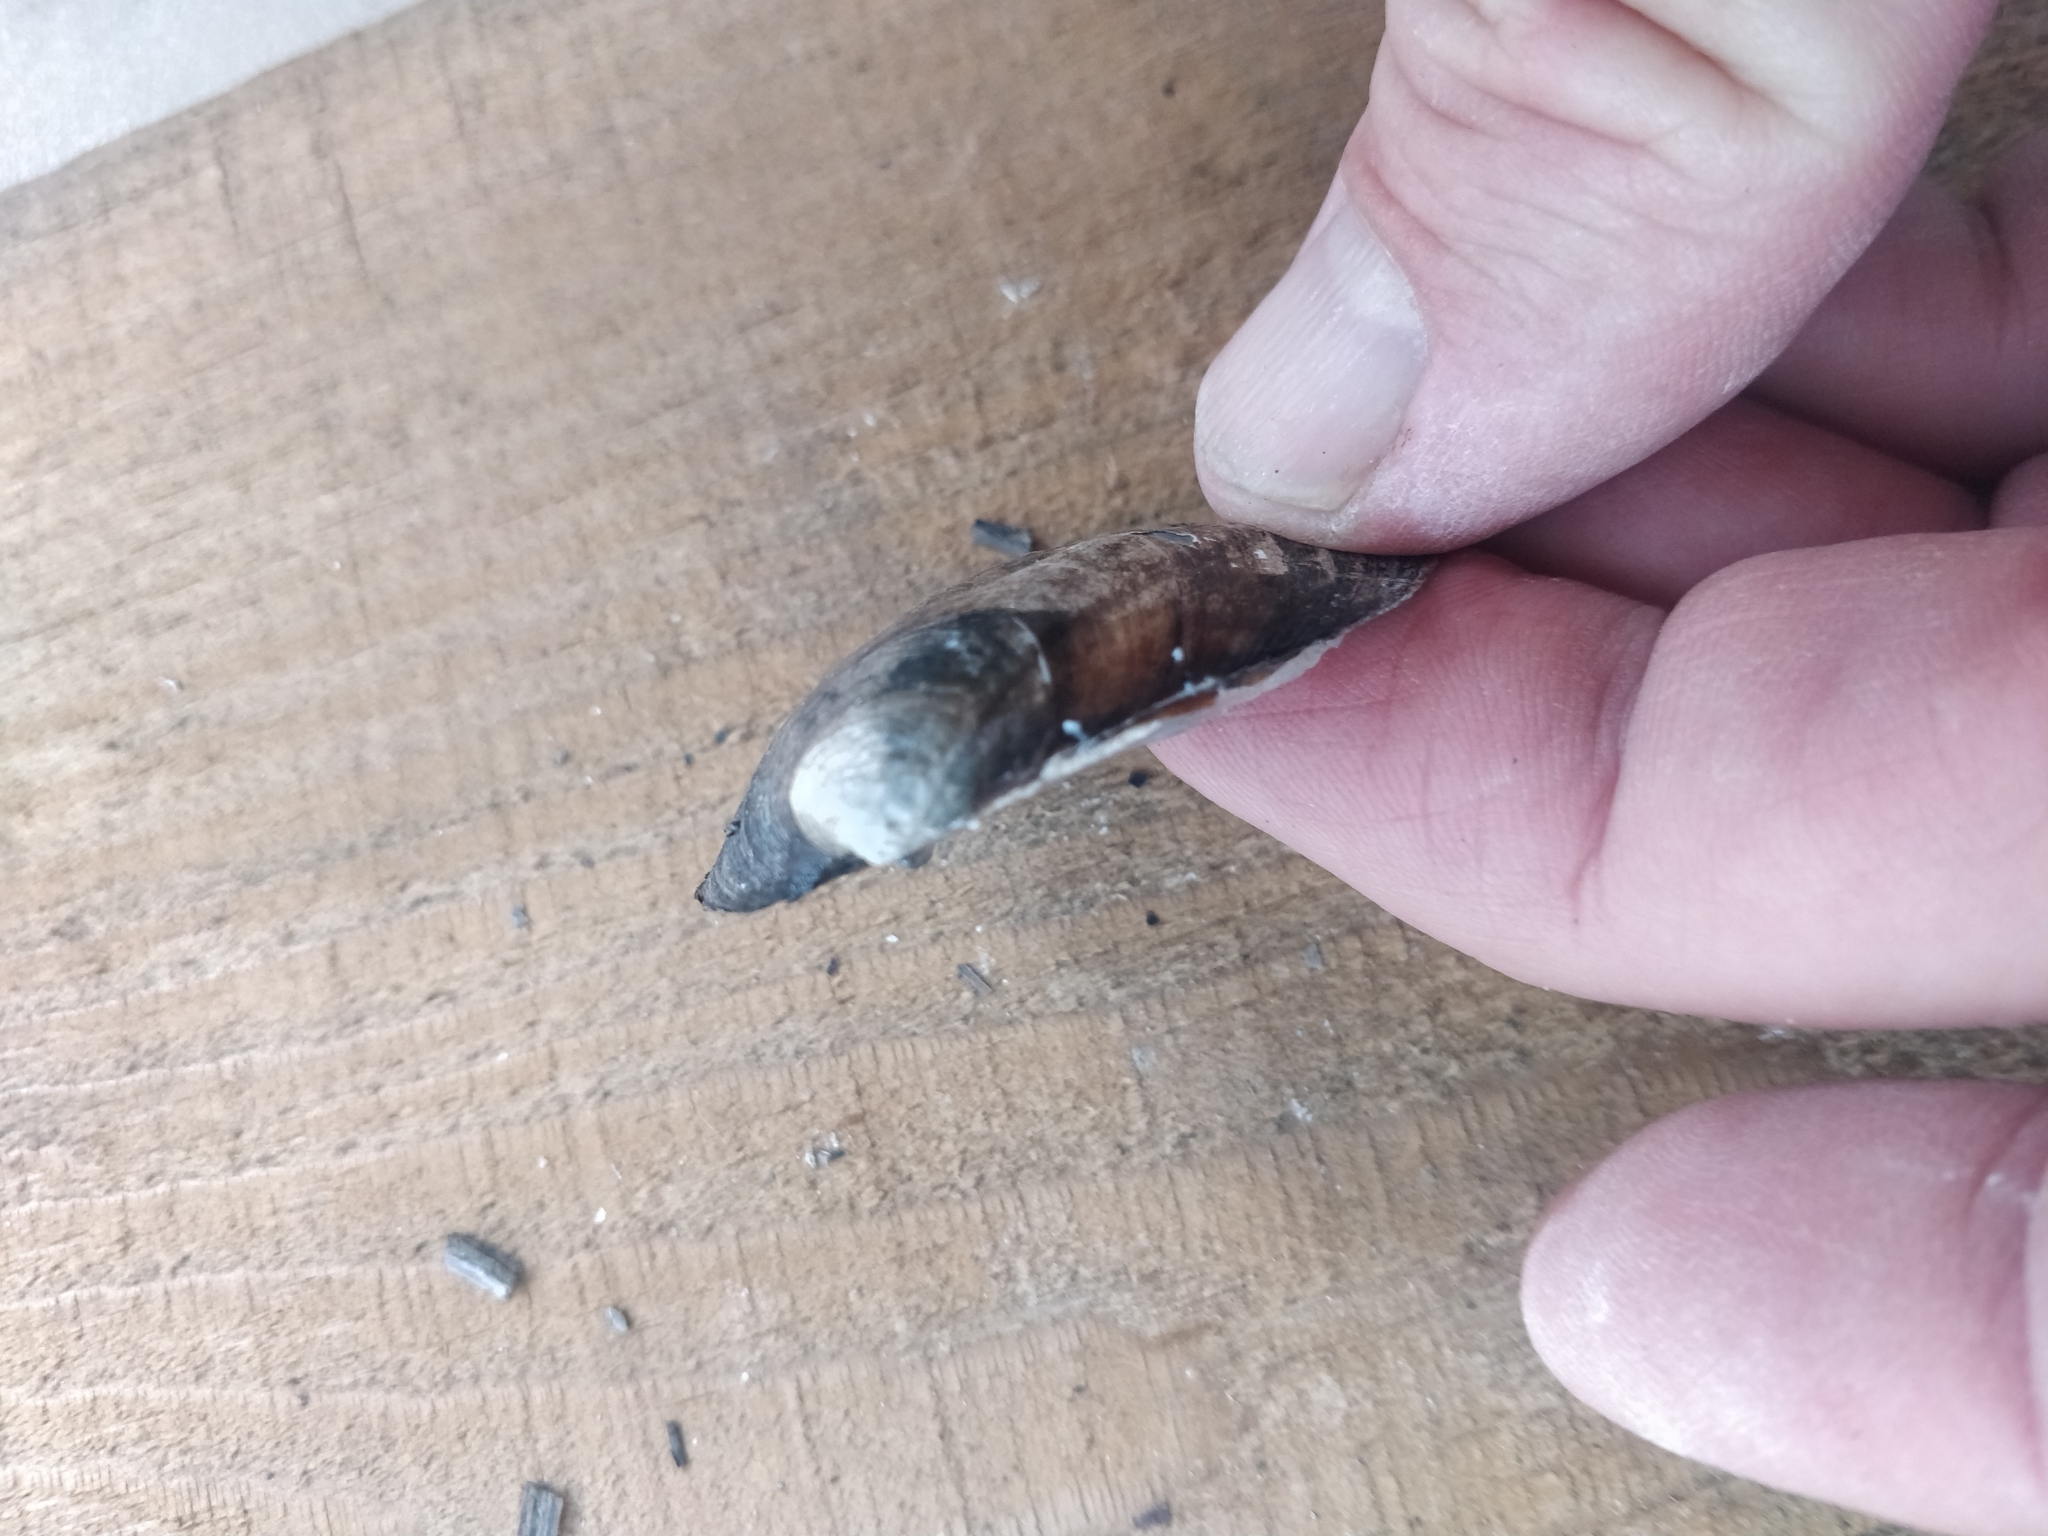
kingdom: Animalia
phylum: Mollusca
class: Bivalvia
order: Unionida
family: Unionidae
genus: Amblema
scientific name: Amblema plicata
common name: Threeridge
